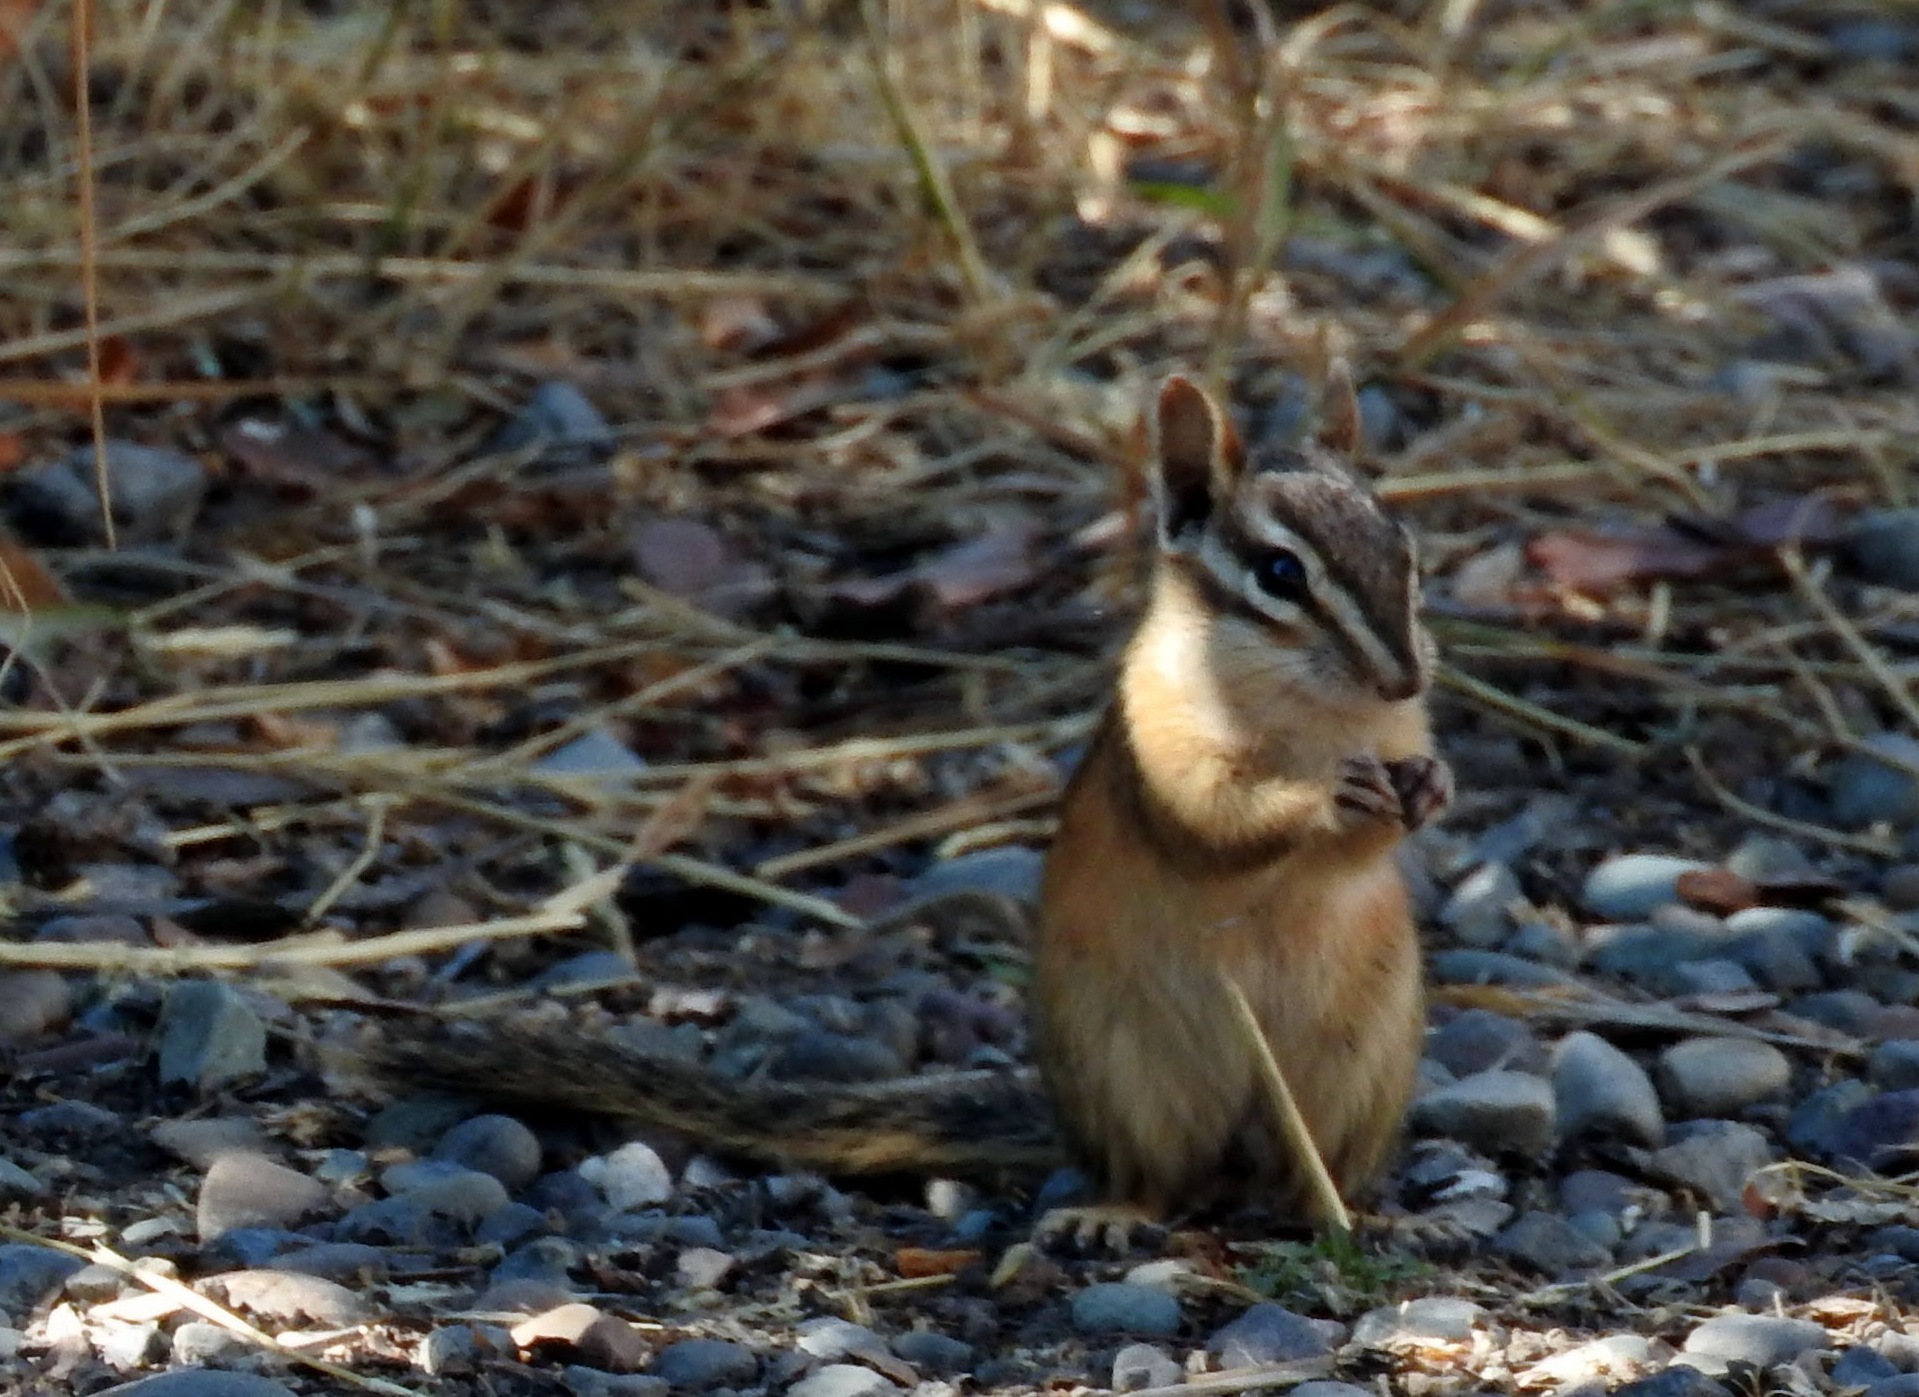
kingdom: Animalia
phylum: Chordata
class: Mammalia
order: Rodentia
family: Sciuridae
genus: Tamias
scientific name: Tamias amoenus
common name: Yellow-pine chipmunk
